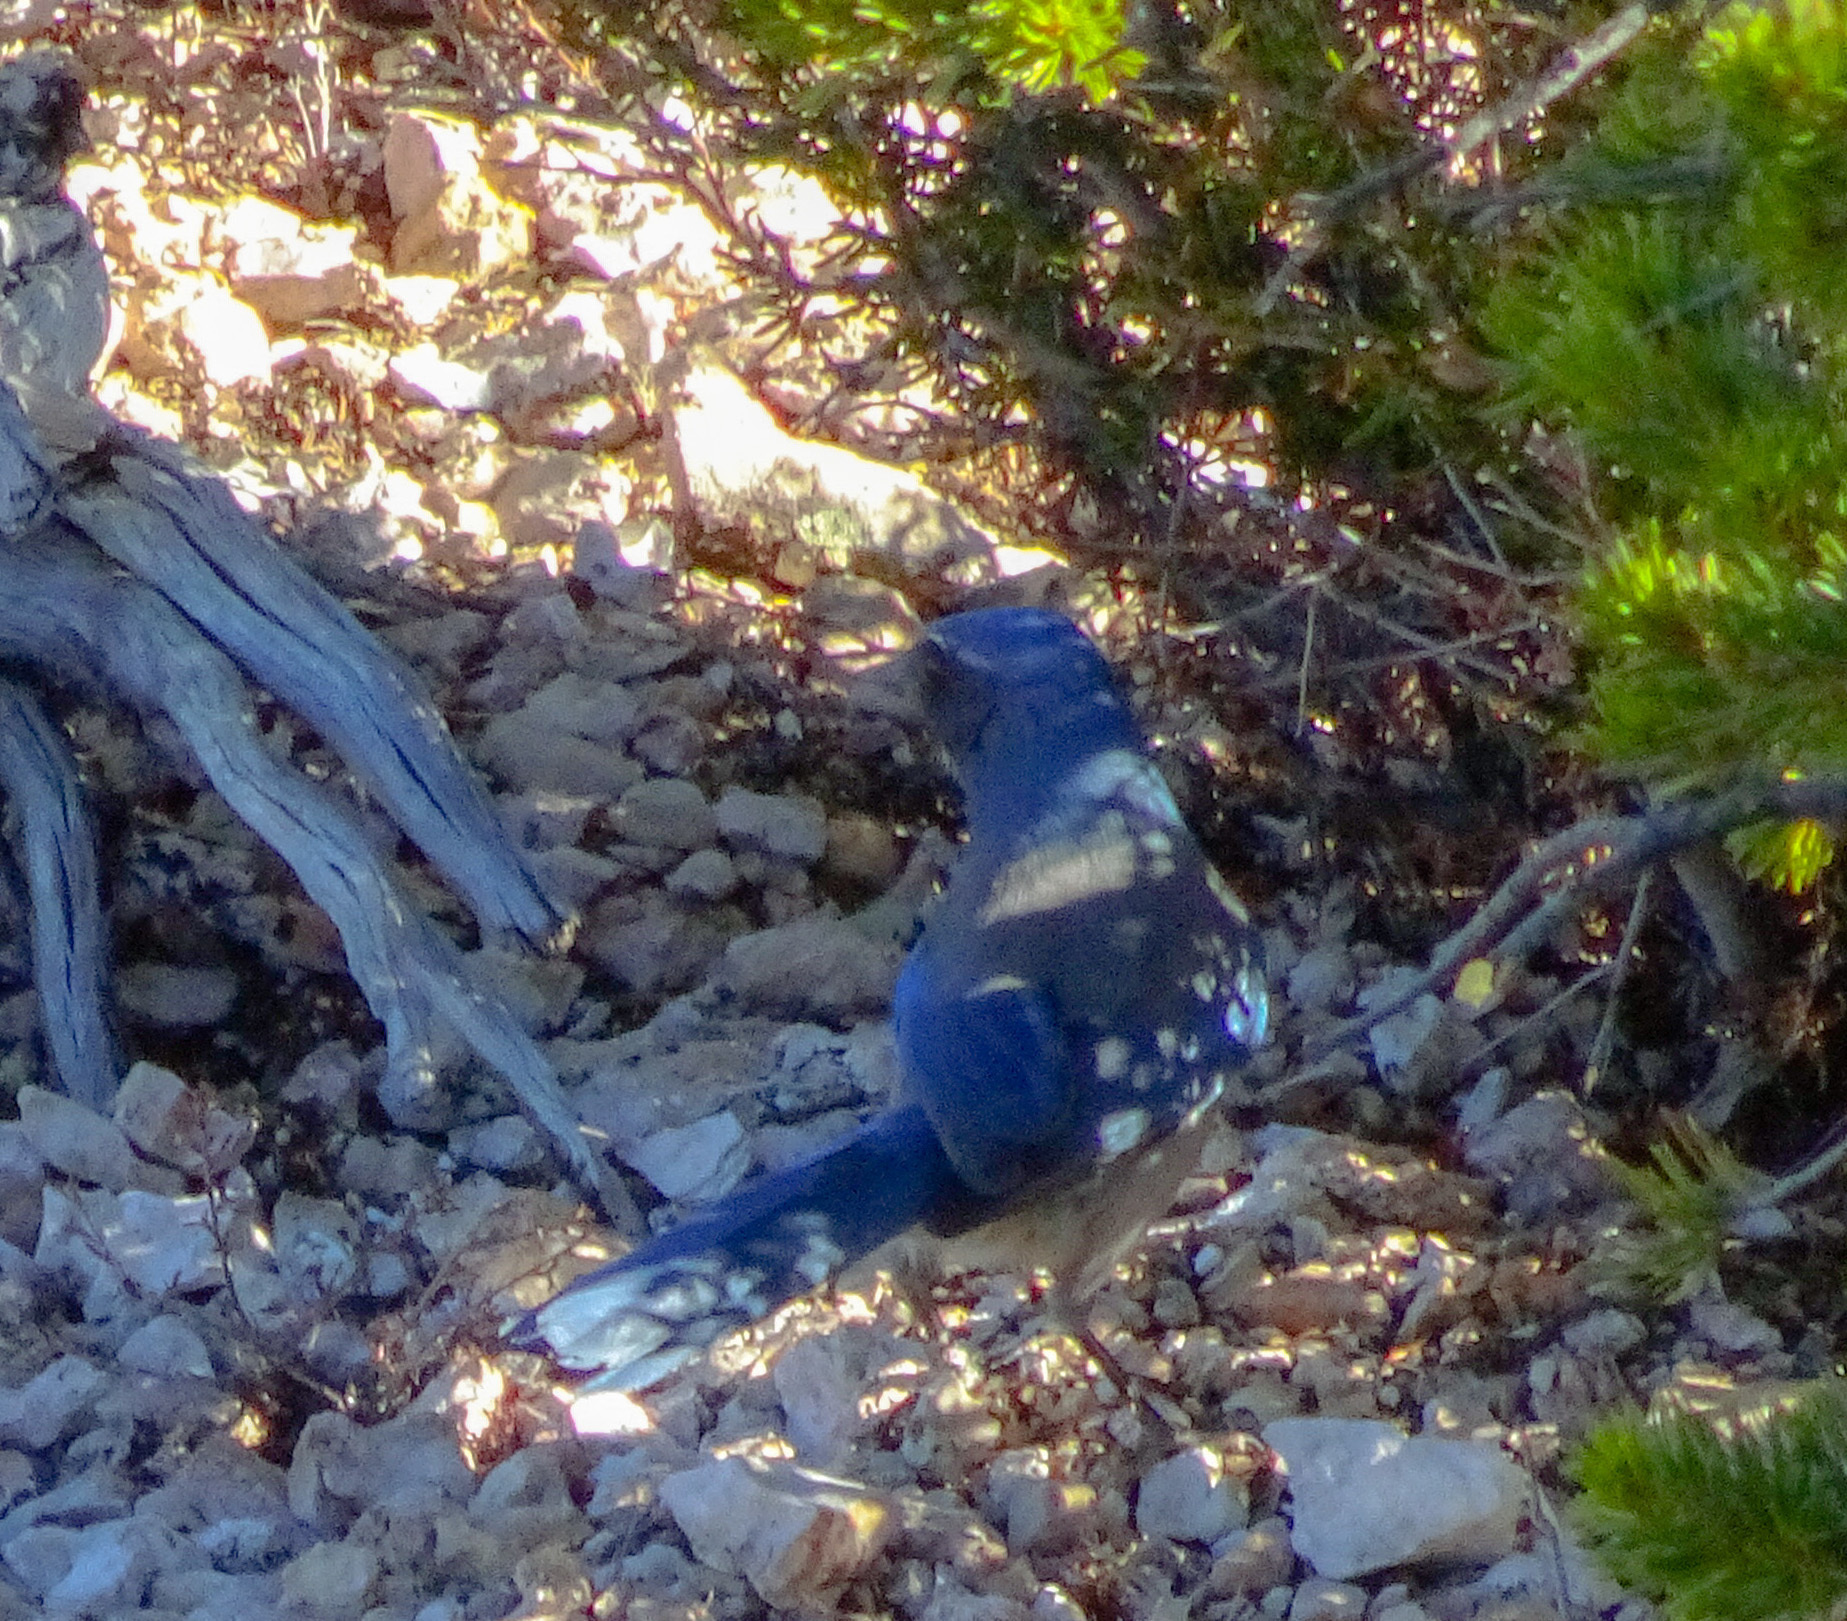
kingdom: Animalia
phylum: Chordata
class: Aves
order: Passeriformes
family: Corvidae
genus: Aphelocoma
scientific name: Aphelocoma woodhouseii
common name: Woodhouse's scrub-jay
